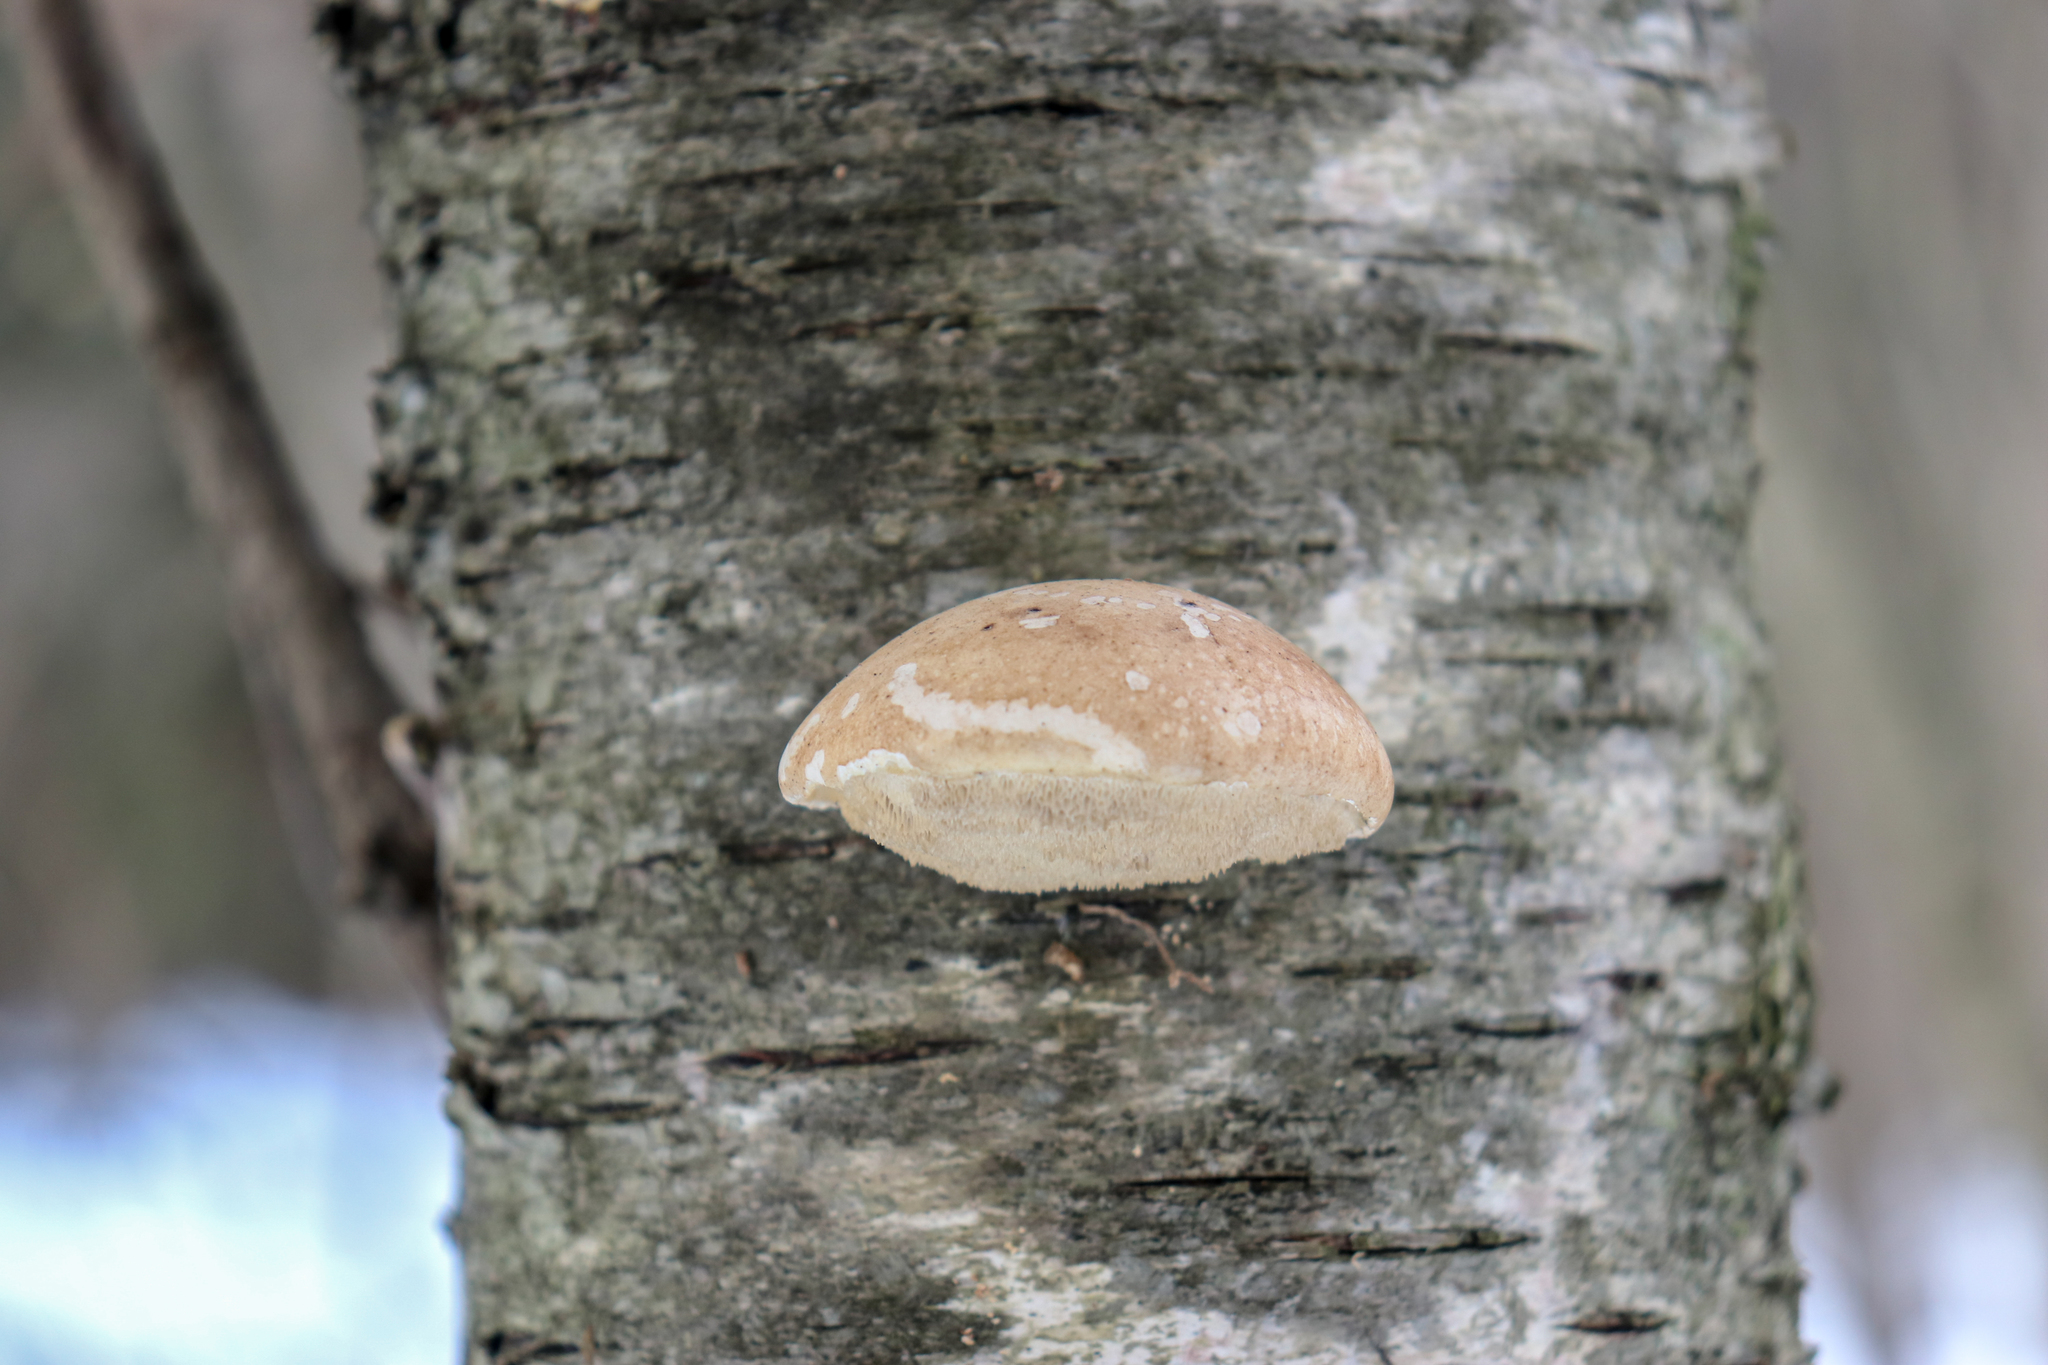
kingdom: Fungi
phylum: Basidiomycota
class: Agaricomycetes
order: Polyporales
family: Fomitopsidaceae
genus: Fomitopsis
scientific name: Fomitopsis betulina
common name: Birch polypore
